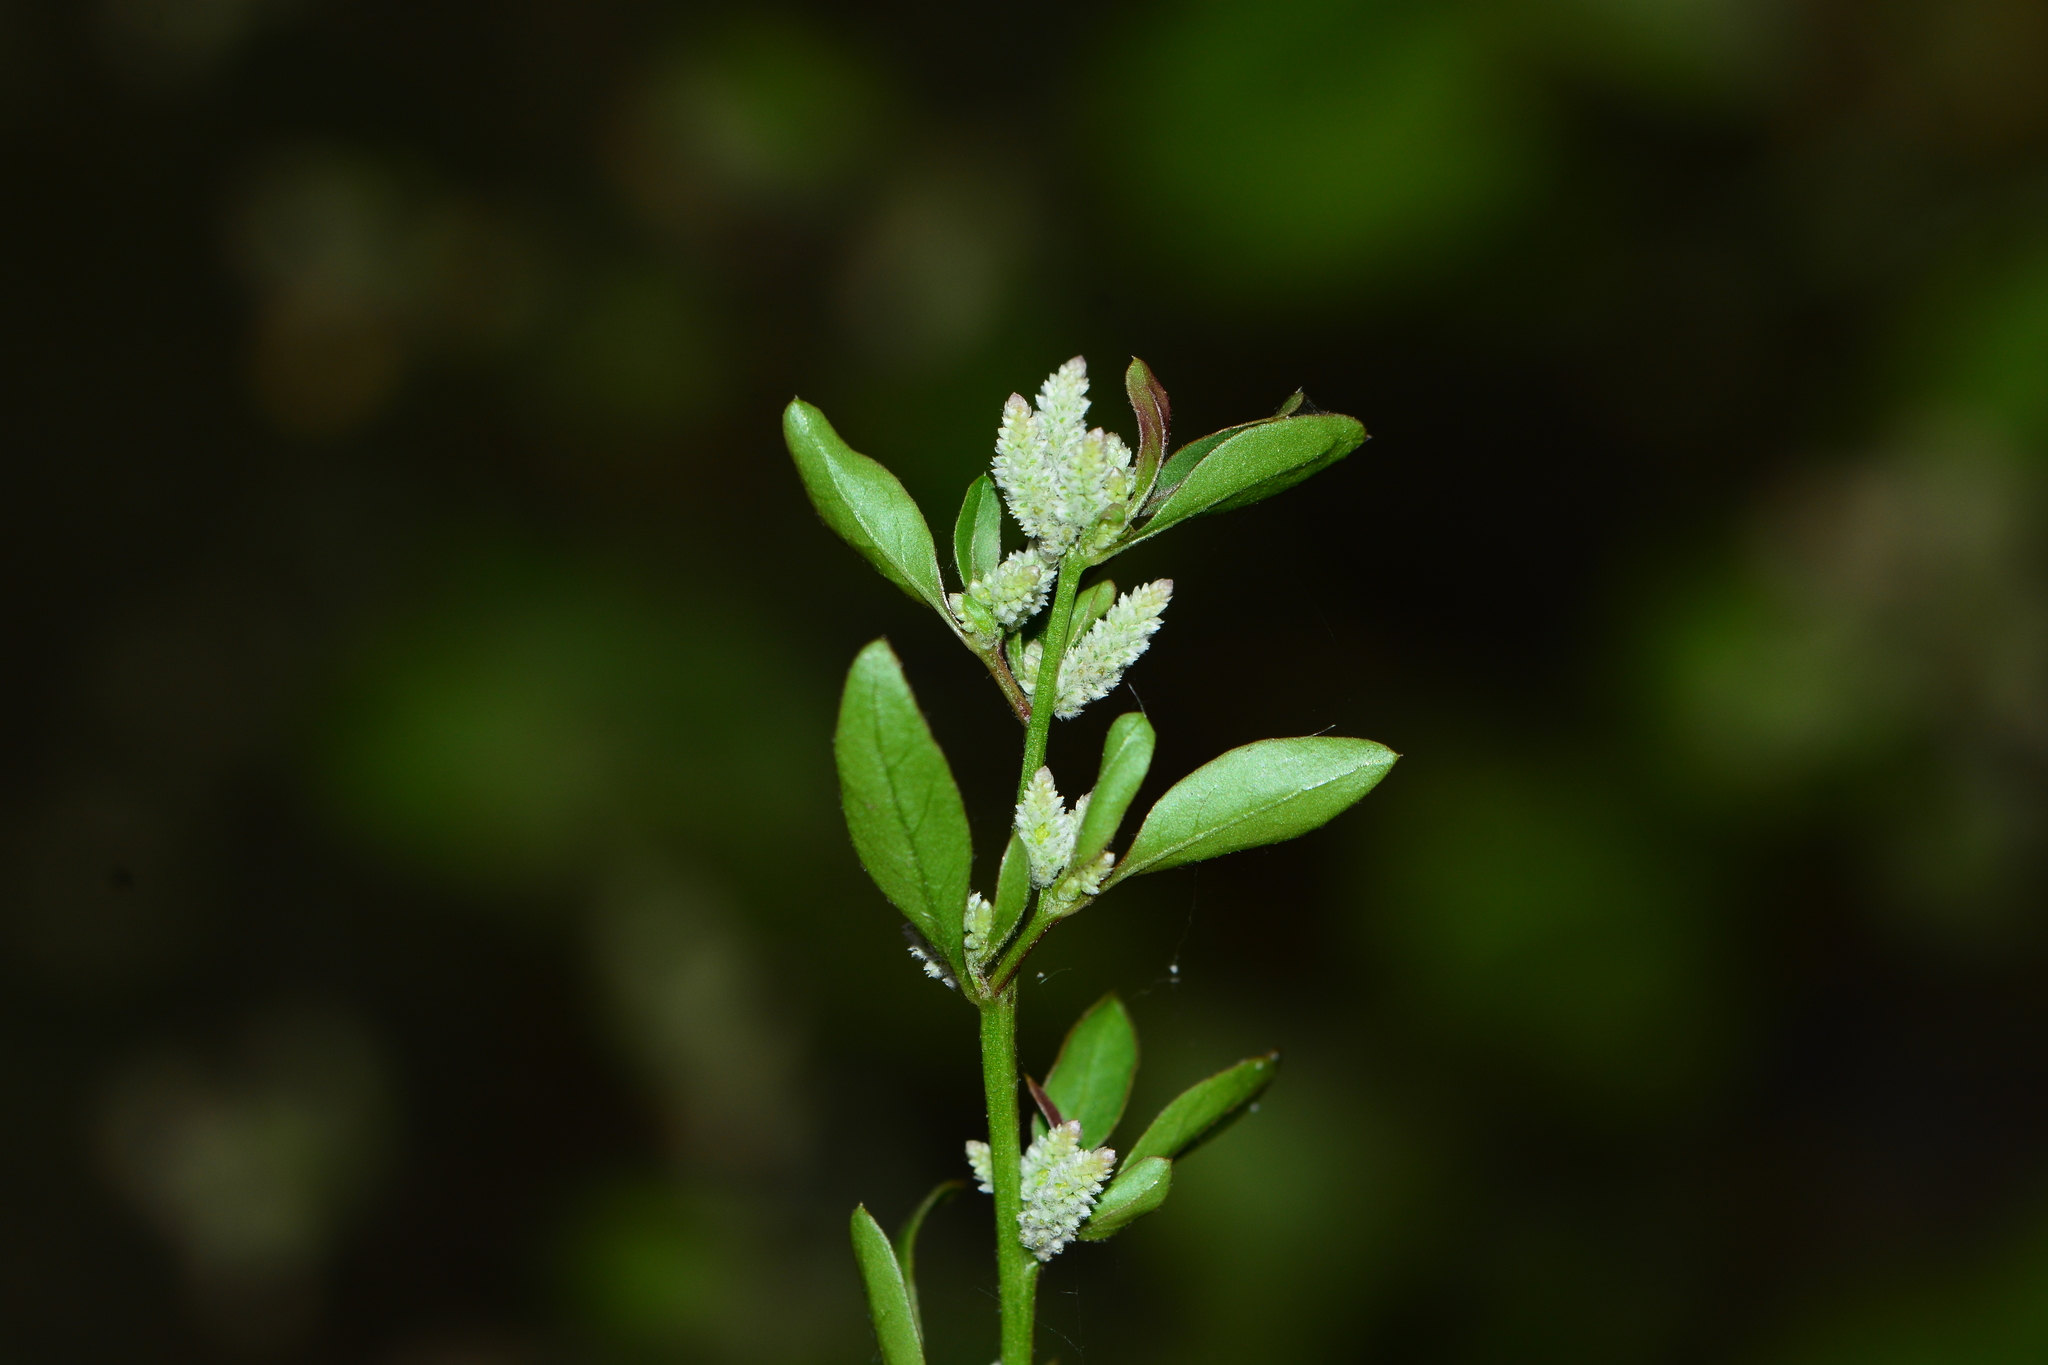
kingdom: Plantae
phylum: Tracheophyta
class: Magnoliopsida
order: Caryophyllales
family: Amaranthaceae
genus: Ouret
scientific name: Ouret lanata
